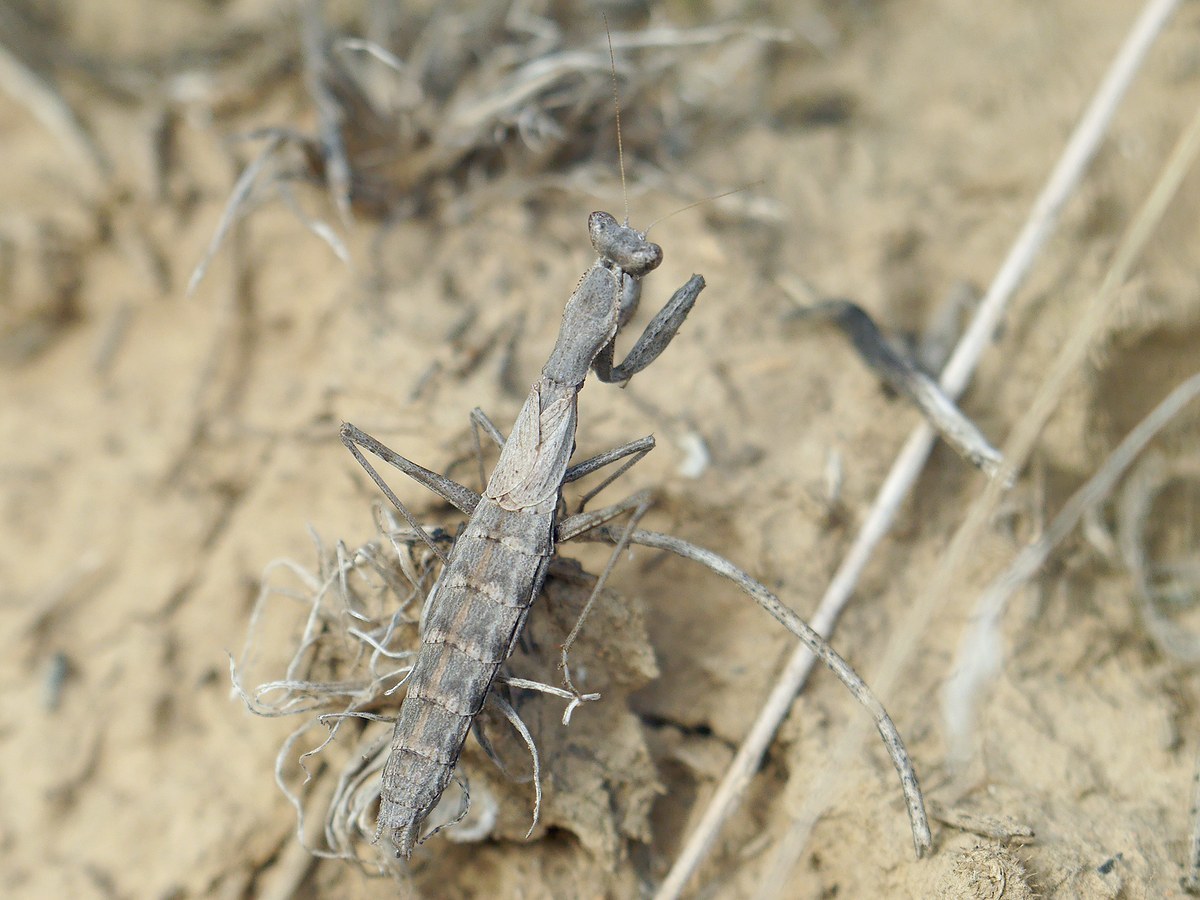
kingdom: Animalia
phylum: Arthropoda
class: Insecta
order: Mantodea
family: Amelidae
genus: Ameles
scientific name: Ameles heldreichi
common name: Heldreich's dwarf mantis
